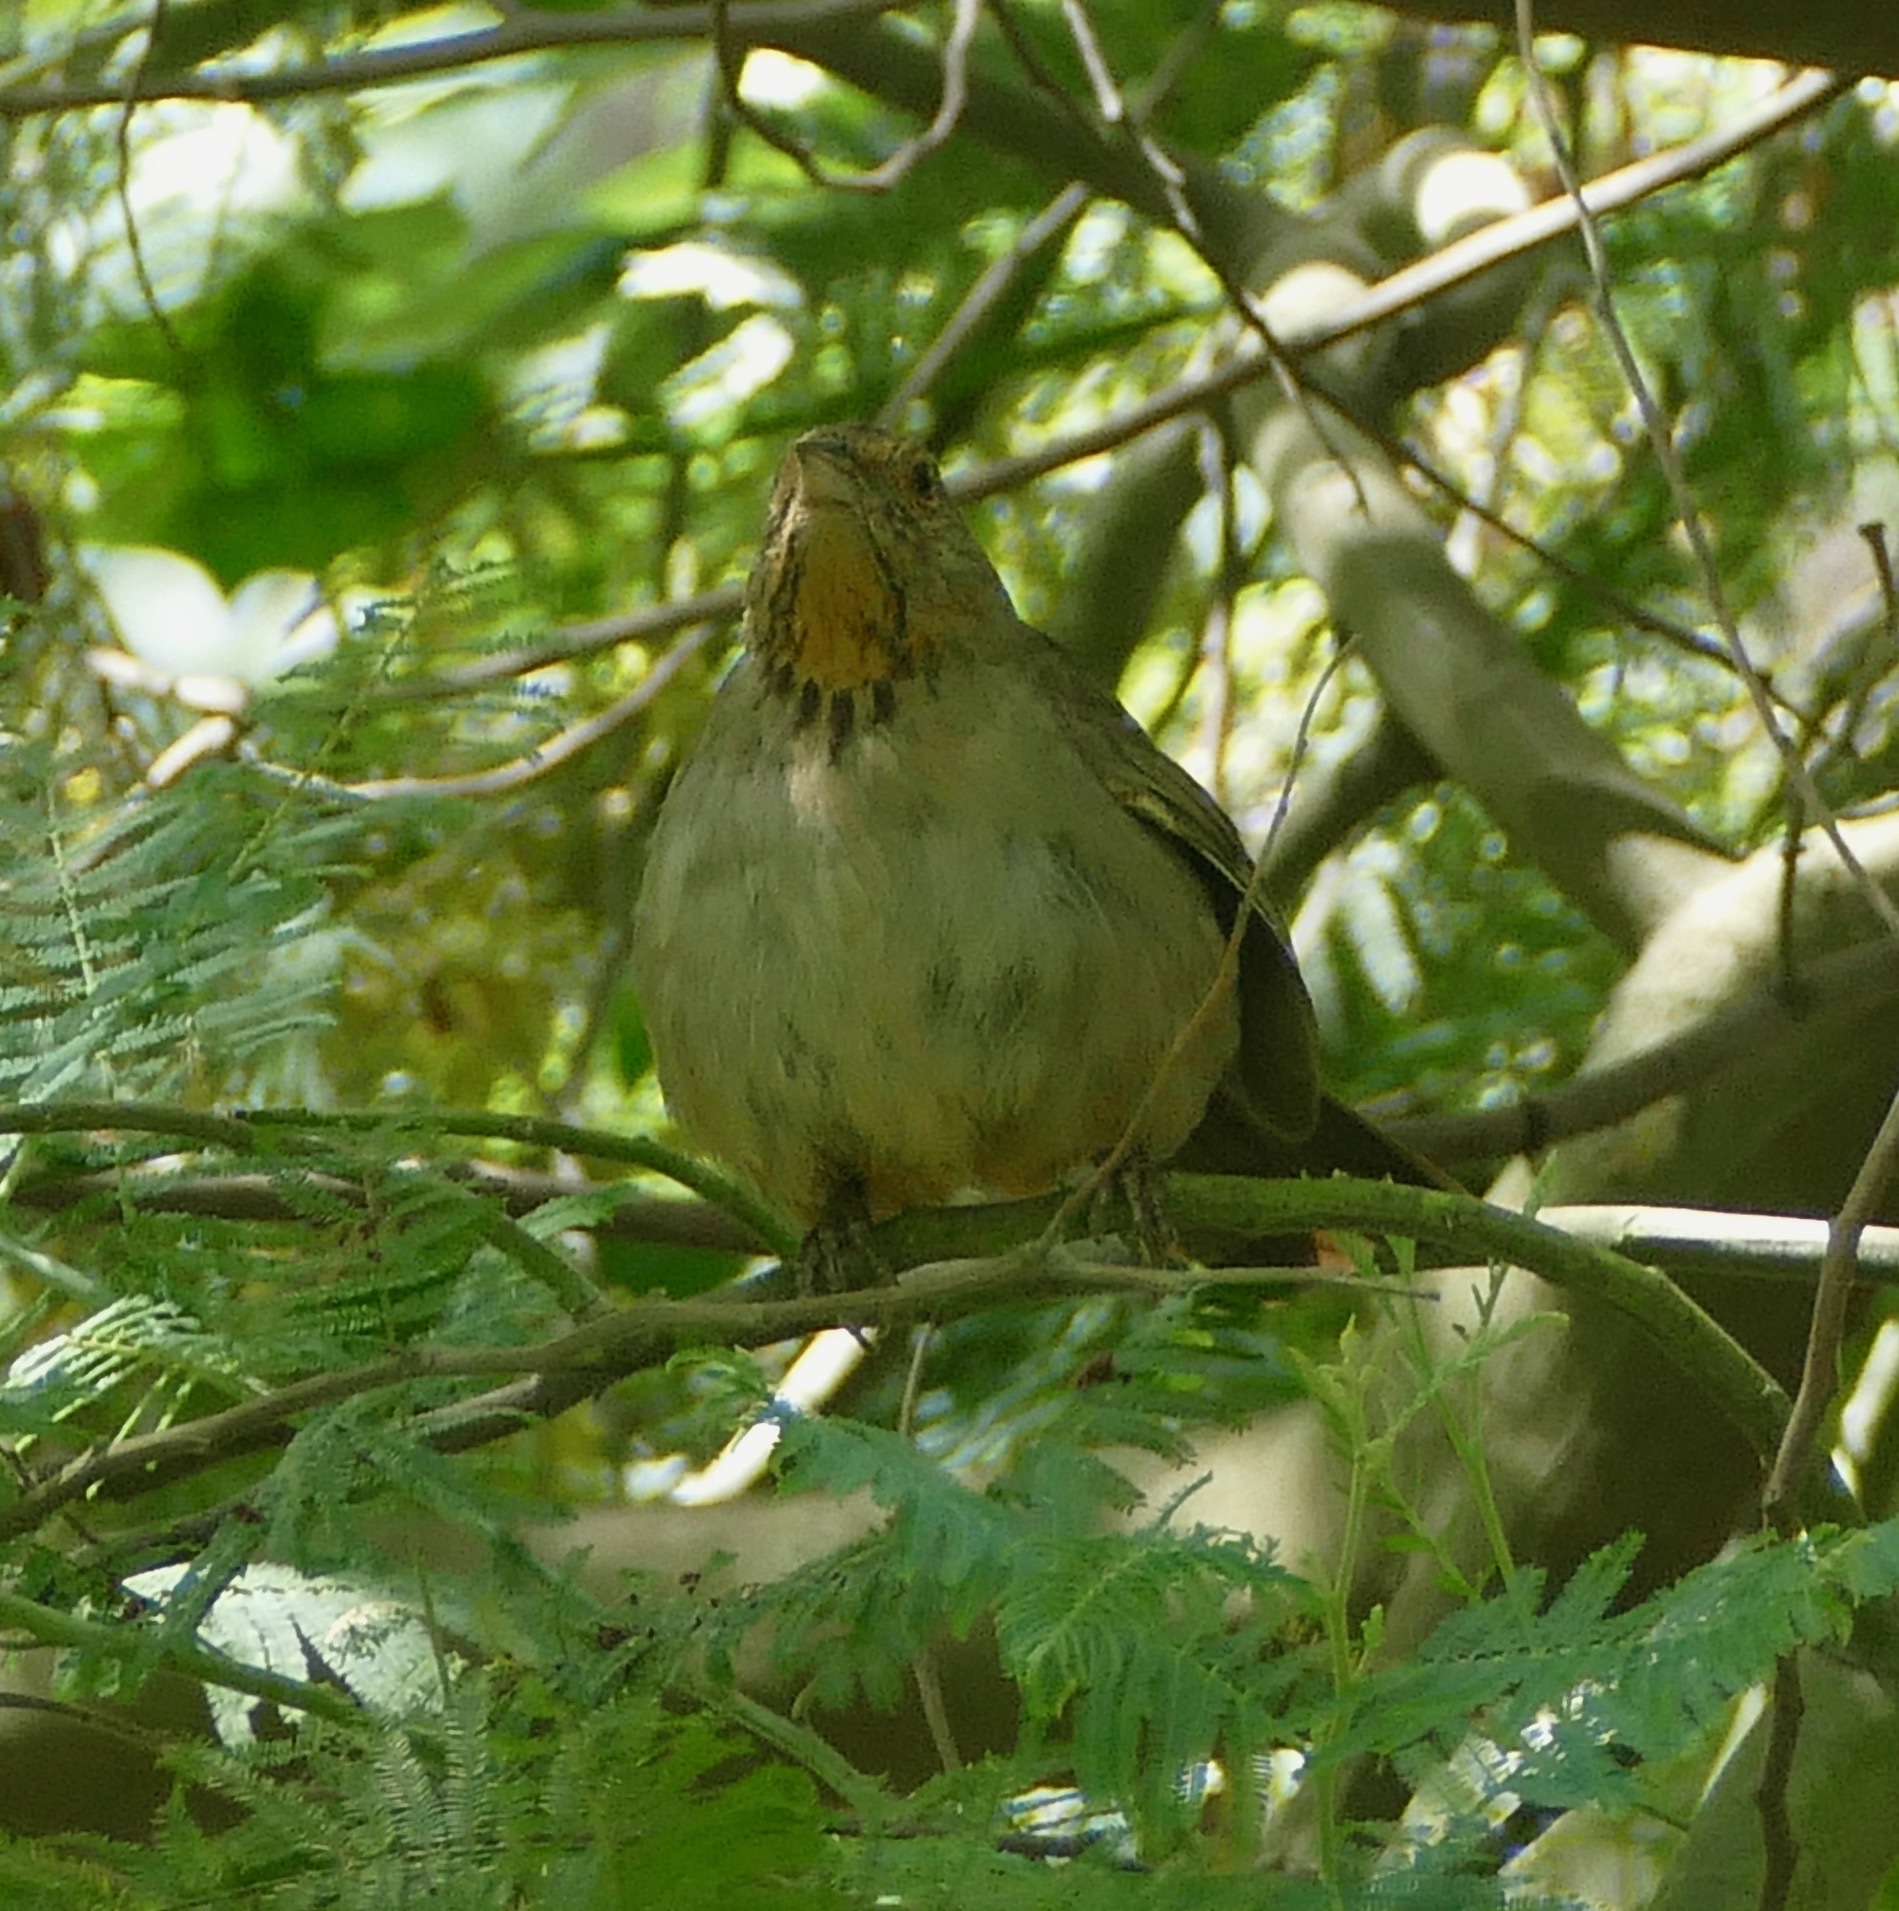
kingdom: Animalia
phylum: Chordata
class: Aves
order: Passeriformes
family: Passerellidae
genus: Melozone
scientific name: Melozone crissalis
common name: California towhee
